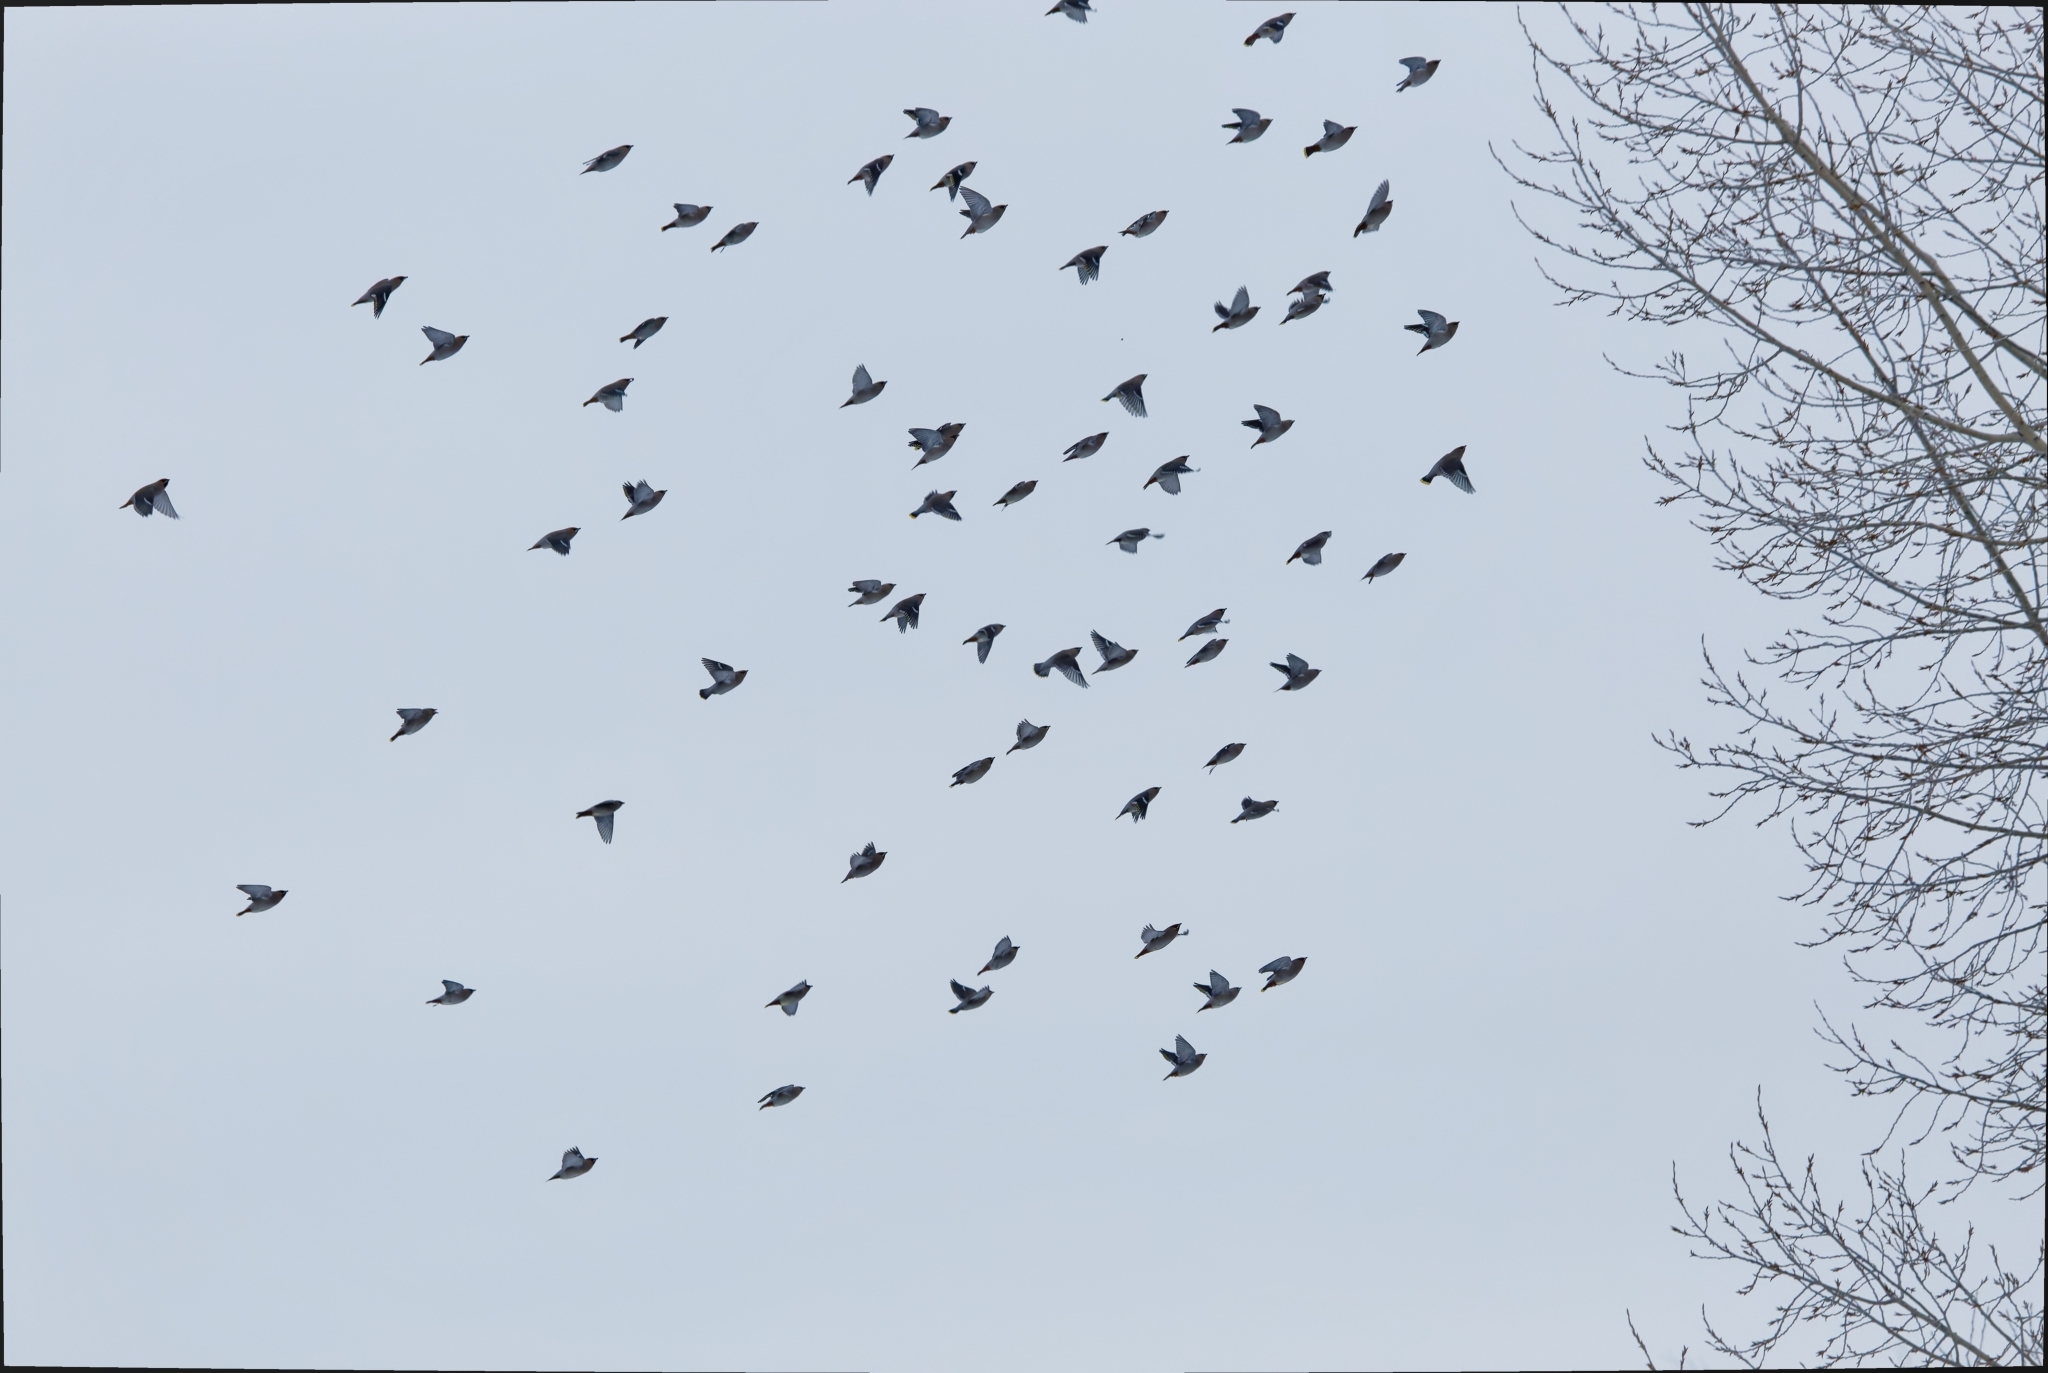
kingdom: Animalia
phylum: Chordata
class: Aves
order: Passeriformes
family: Bombycillidae
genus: Bombycilla
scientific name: Bombycilla garrulus
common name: Bohemian waxwing
